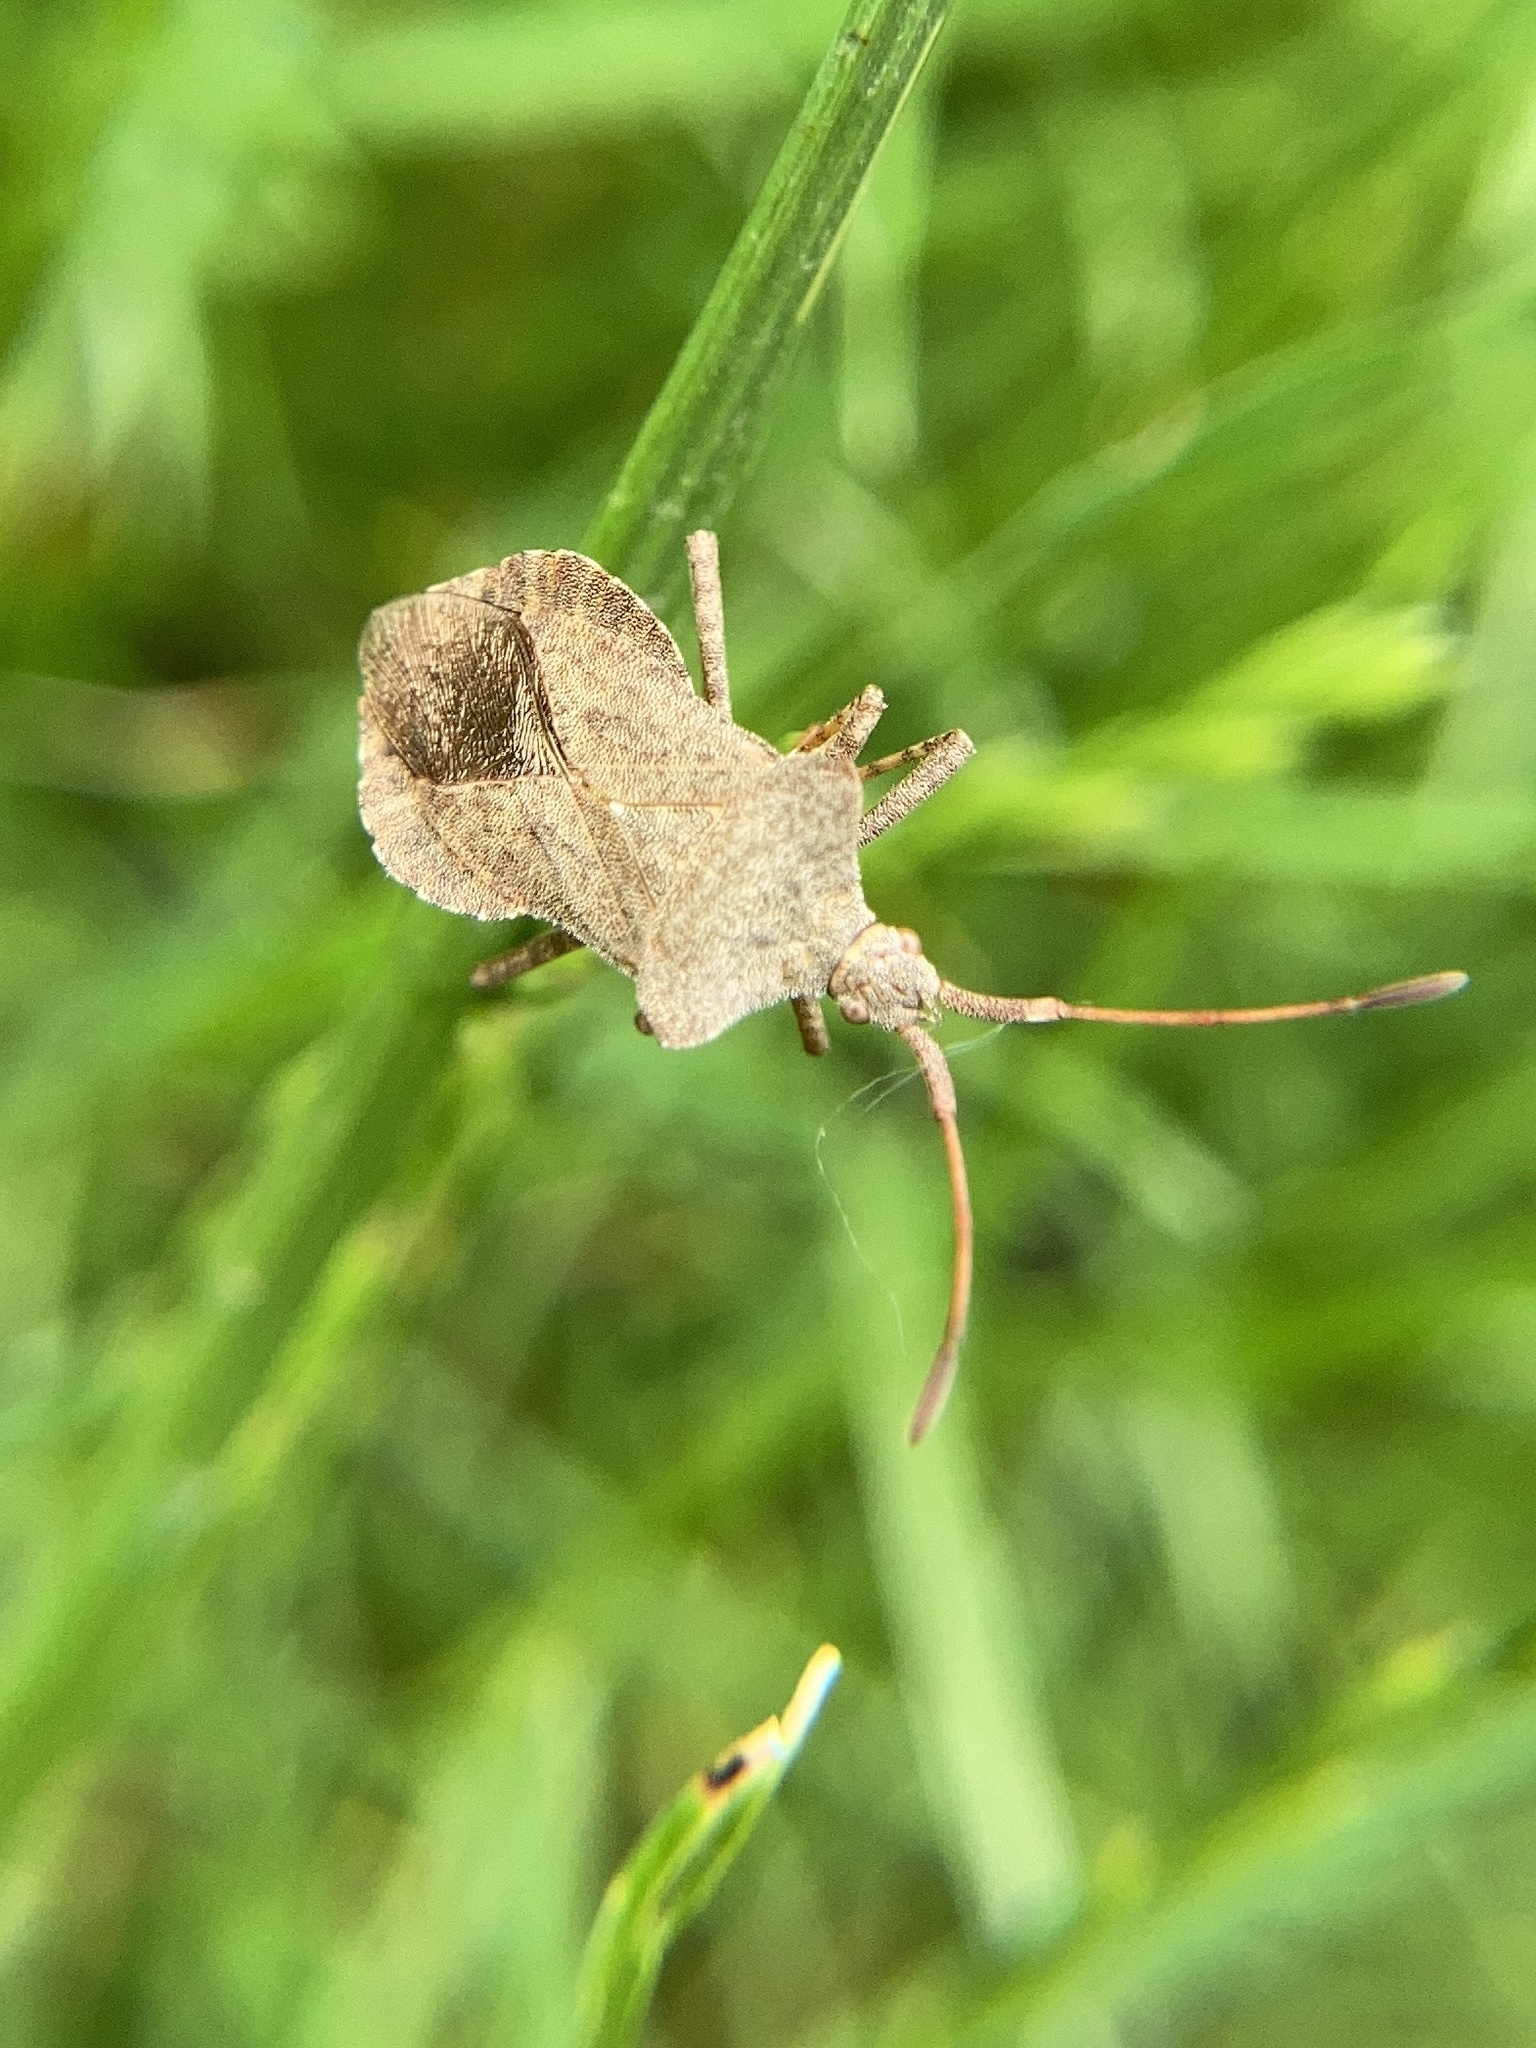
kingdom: Animalia
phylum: Arthropoda
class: Insecta
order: Hemiptera
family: Coreidae
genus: Coreus
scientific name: Coreus marginatus
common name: Dock bug
